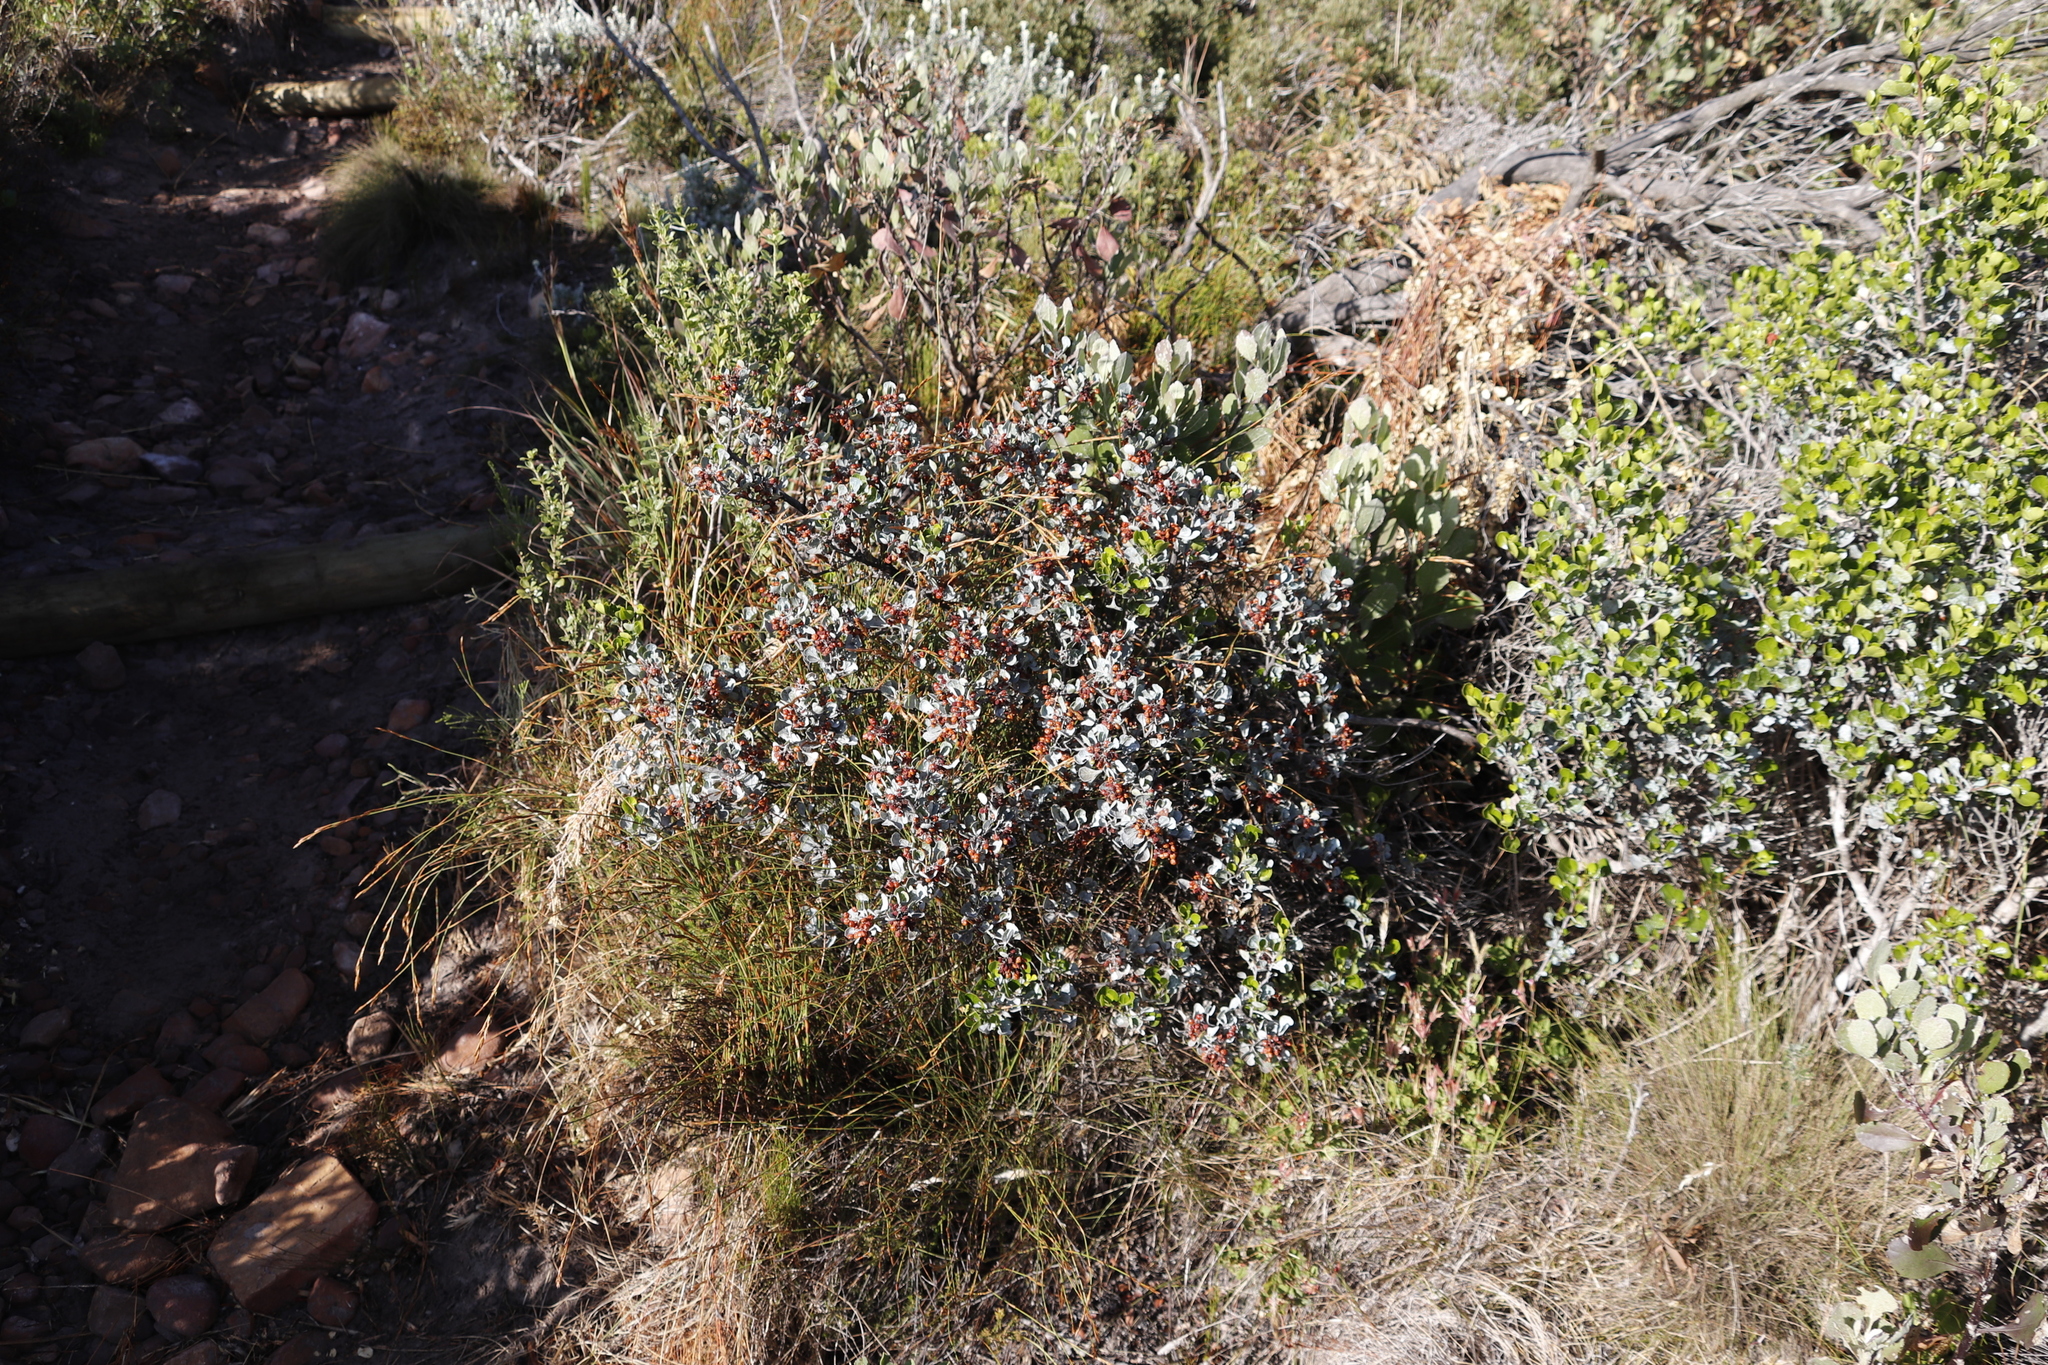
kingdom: Plantae
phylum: Tracheophyta
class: Magnoliopsida
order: Sapindales
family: Anacardiaceae
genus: Searsia
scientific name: Searsia glauca
